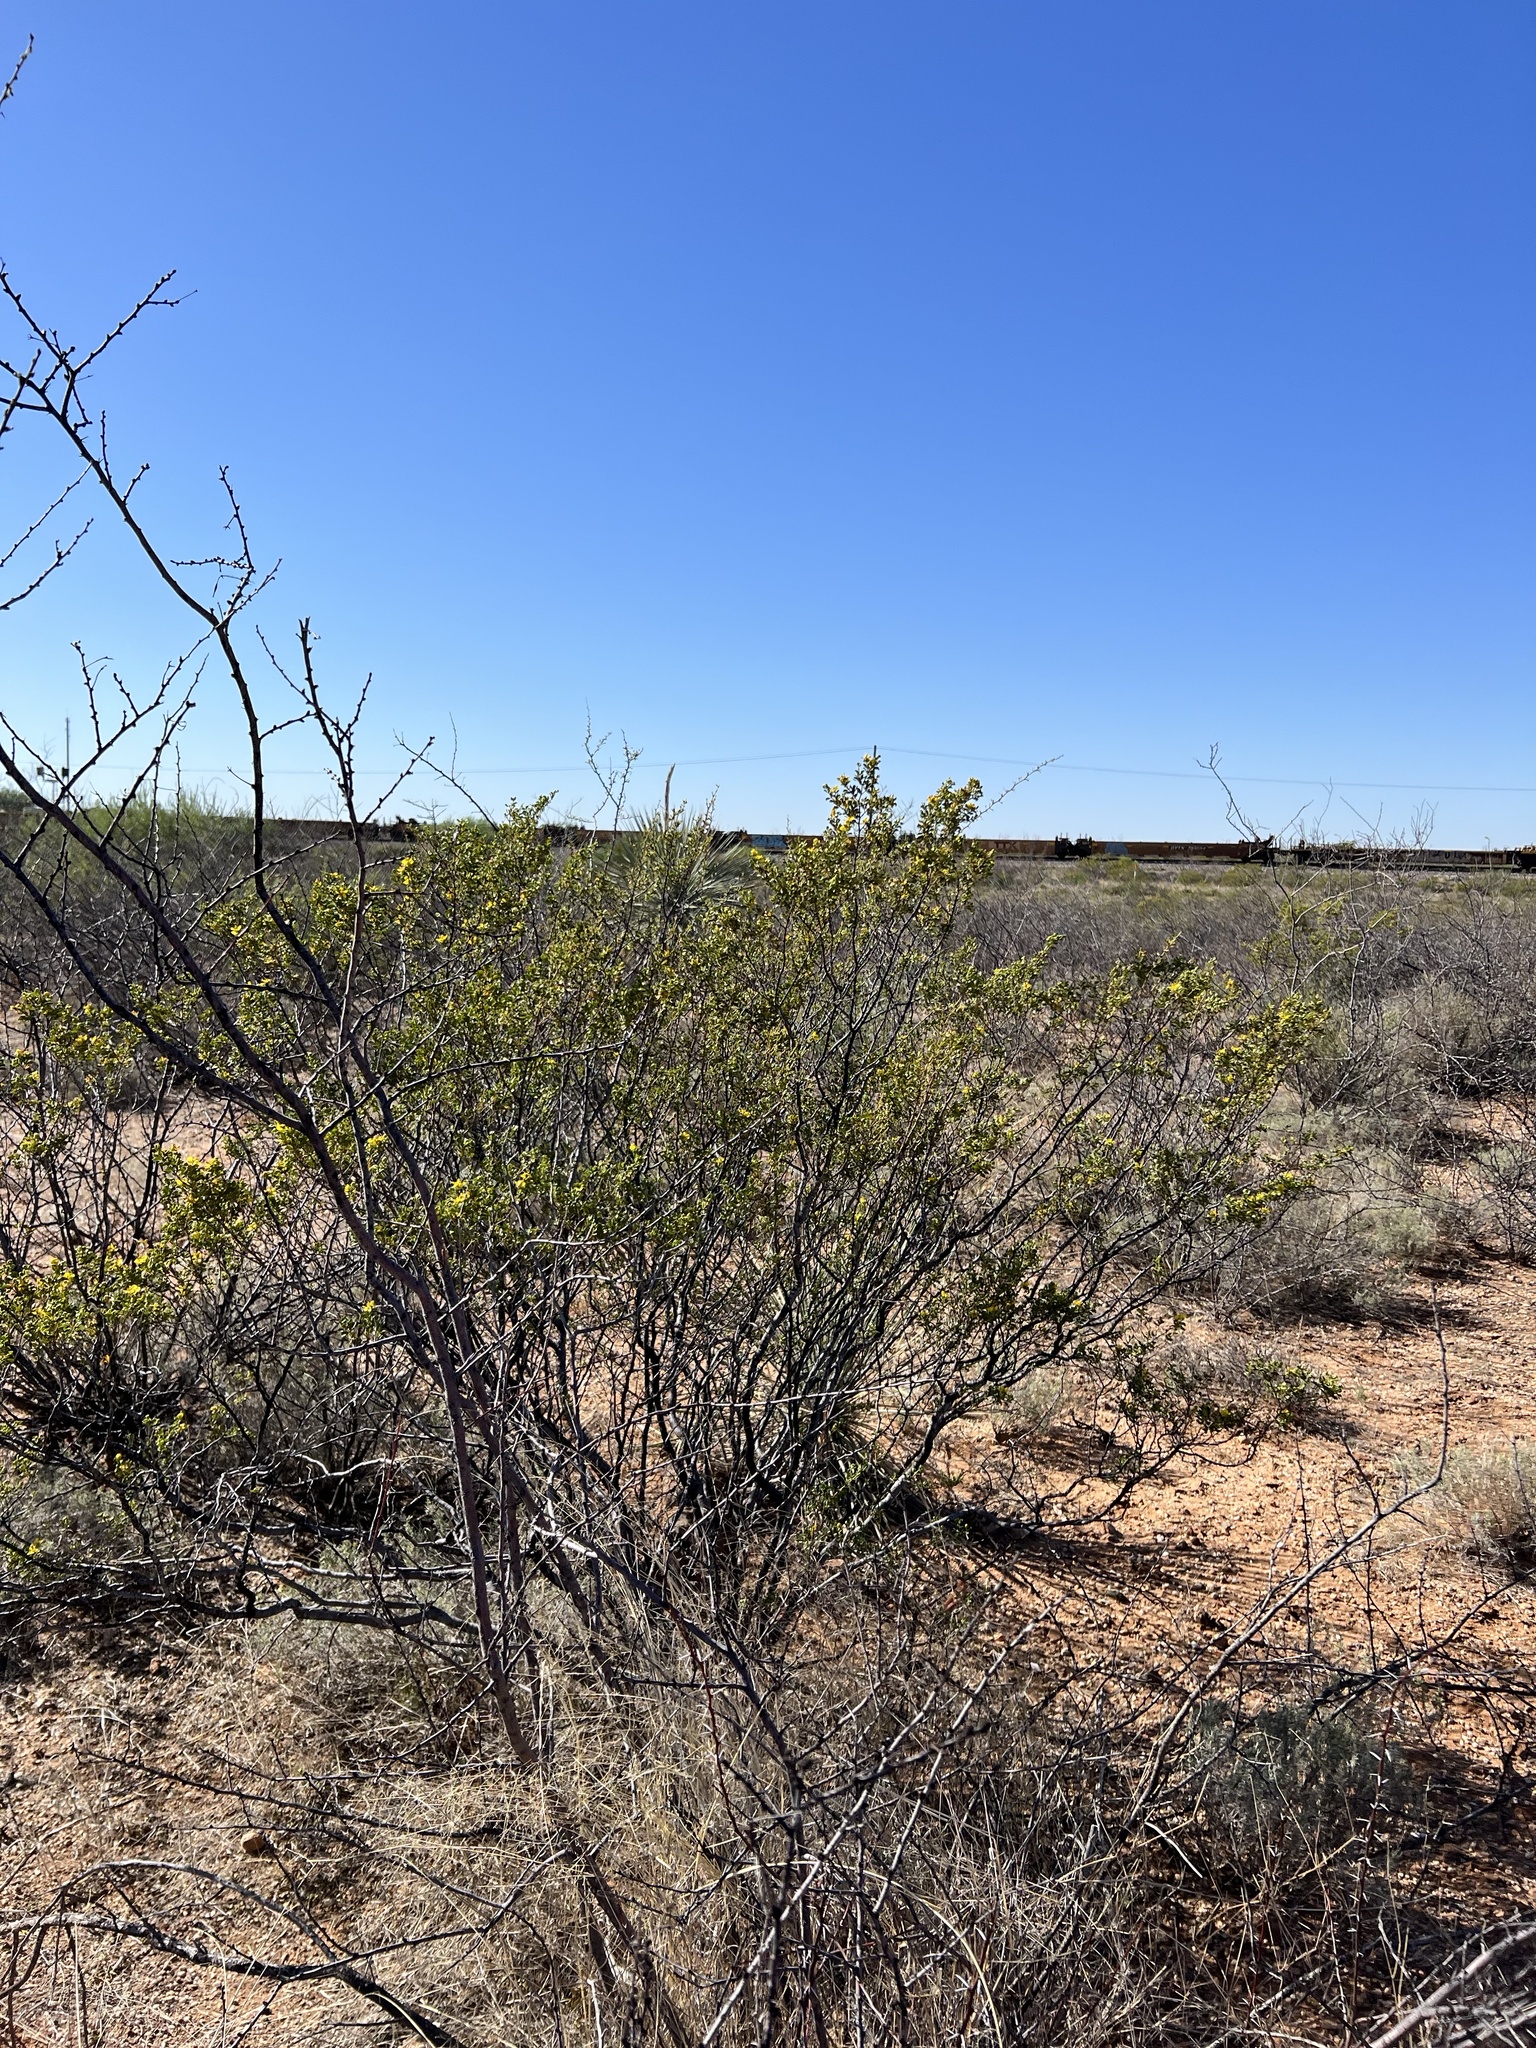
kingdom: Plantae
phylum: Tracheophyta
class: Magnoliopsida
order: Zygophyllales
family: Zygophyllaceae
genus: Larrea
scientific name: Larrea tridentata
